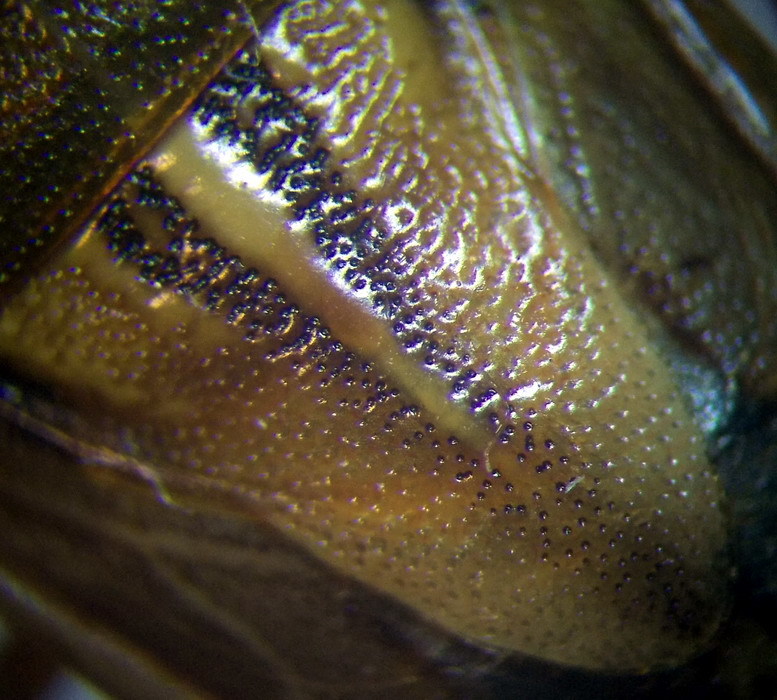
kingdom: Animalia
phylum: Arthropoda
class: Insecta
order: Hemiptera
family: Pentatomidae
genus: Aelia
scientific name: Aelia rostrata
